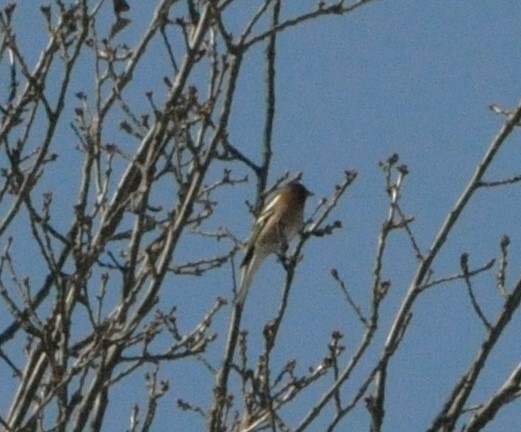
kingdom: Animalia
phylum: Chordata
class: Aves
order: Passeriformes
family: Fringillidae
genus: Fringilla
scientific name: Fringilla coelebs
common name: Common chaffinch
